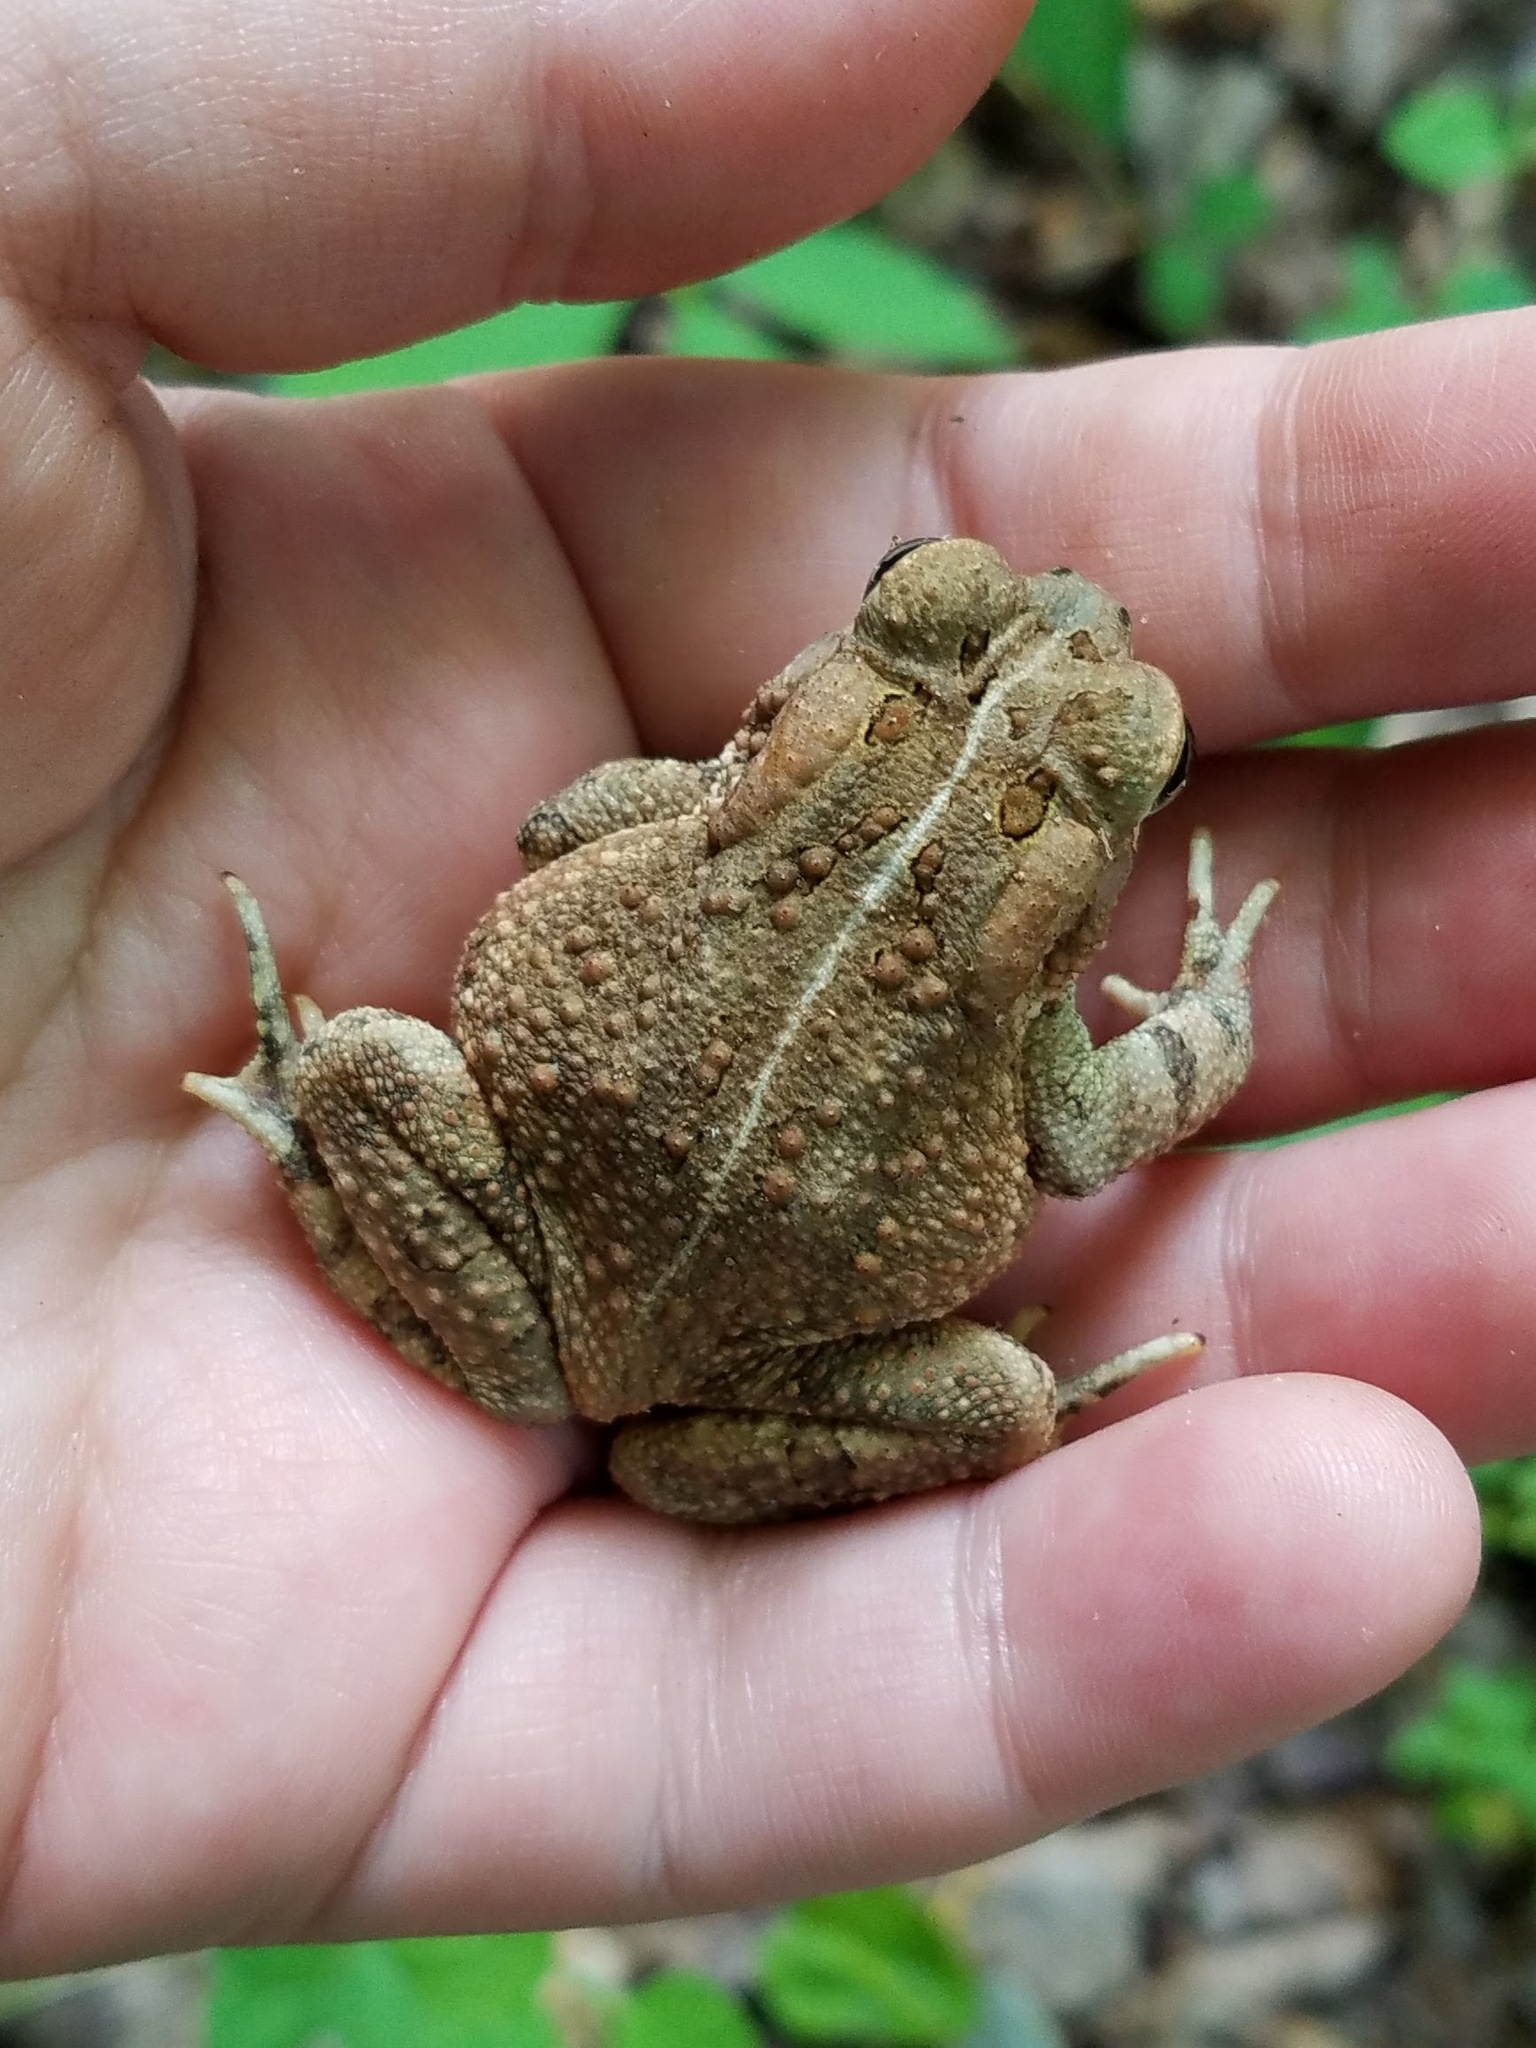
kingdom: Animalia
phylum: Chordata
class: Amphibia
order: Anura
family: Bufonidae
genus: Anaxyrus
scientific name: Anaxyrus fowleri
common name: Fowler's toad
